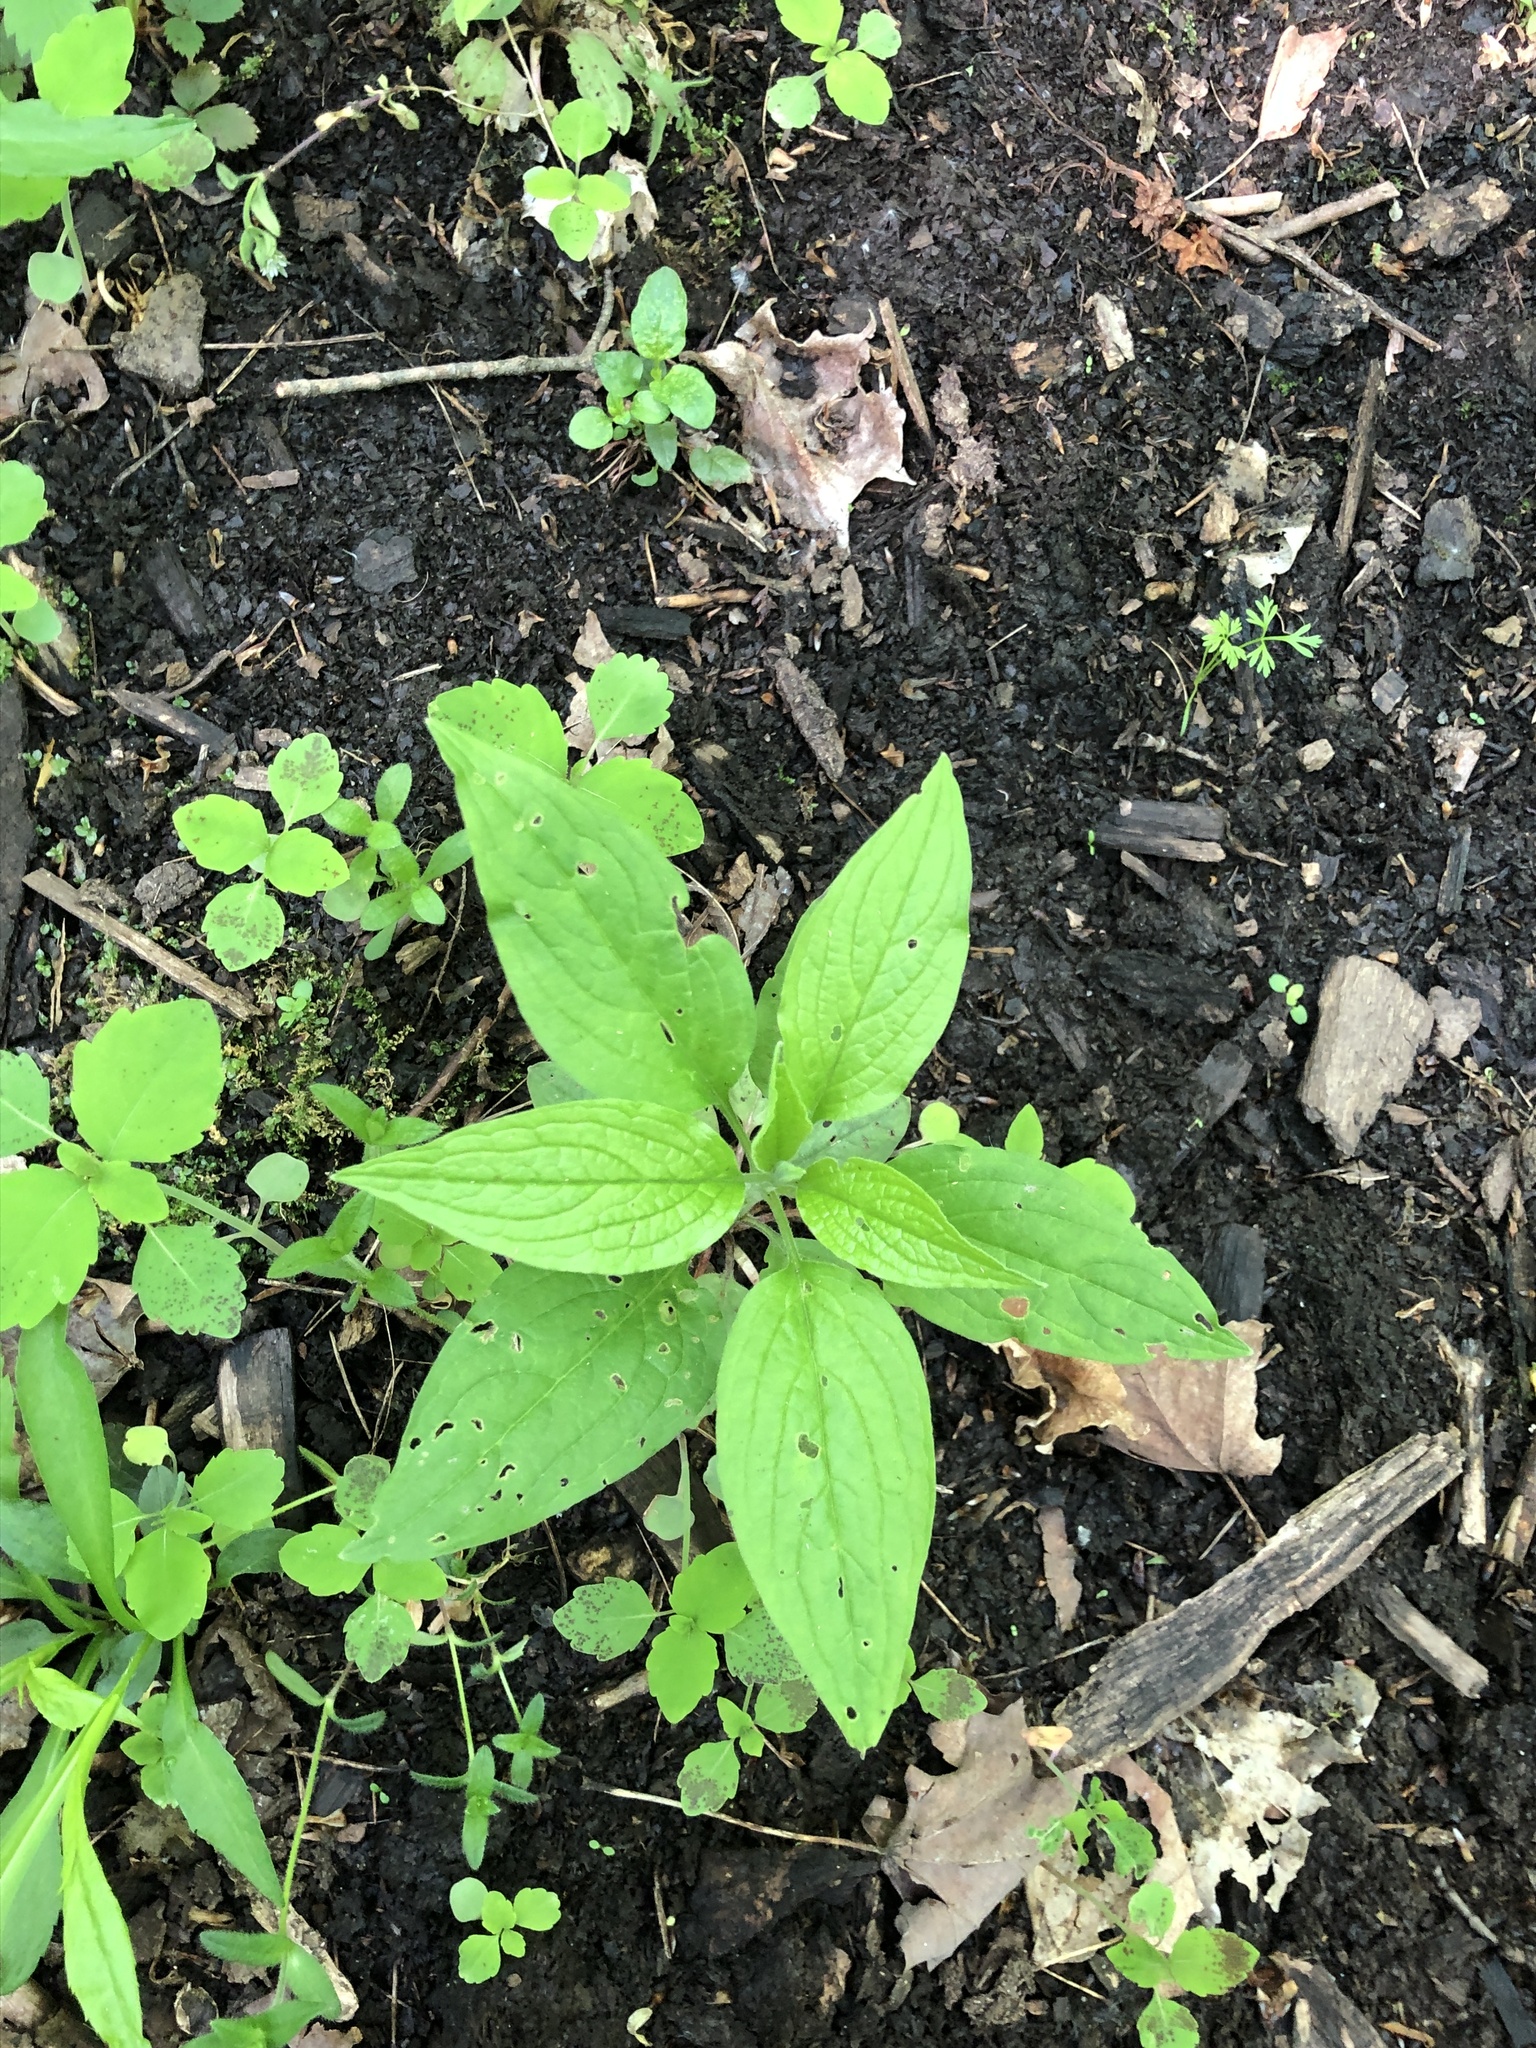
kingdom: Plantae
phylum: Tracheophyta
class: Magnoliopsida
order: Boraginales
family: Boraginaceae
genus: Hackelia
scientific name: Hackelia virginiana
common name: Beggar's-lice
